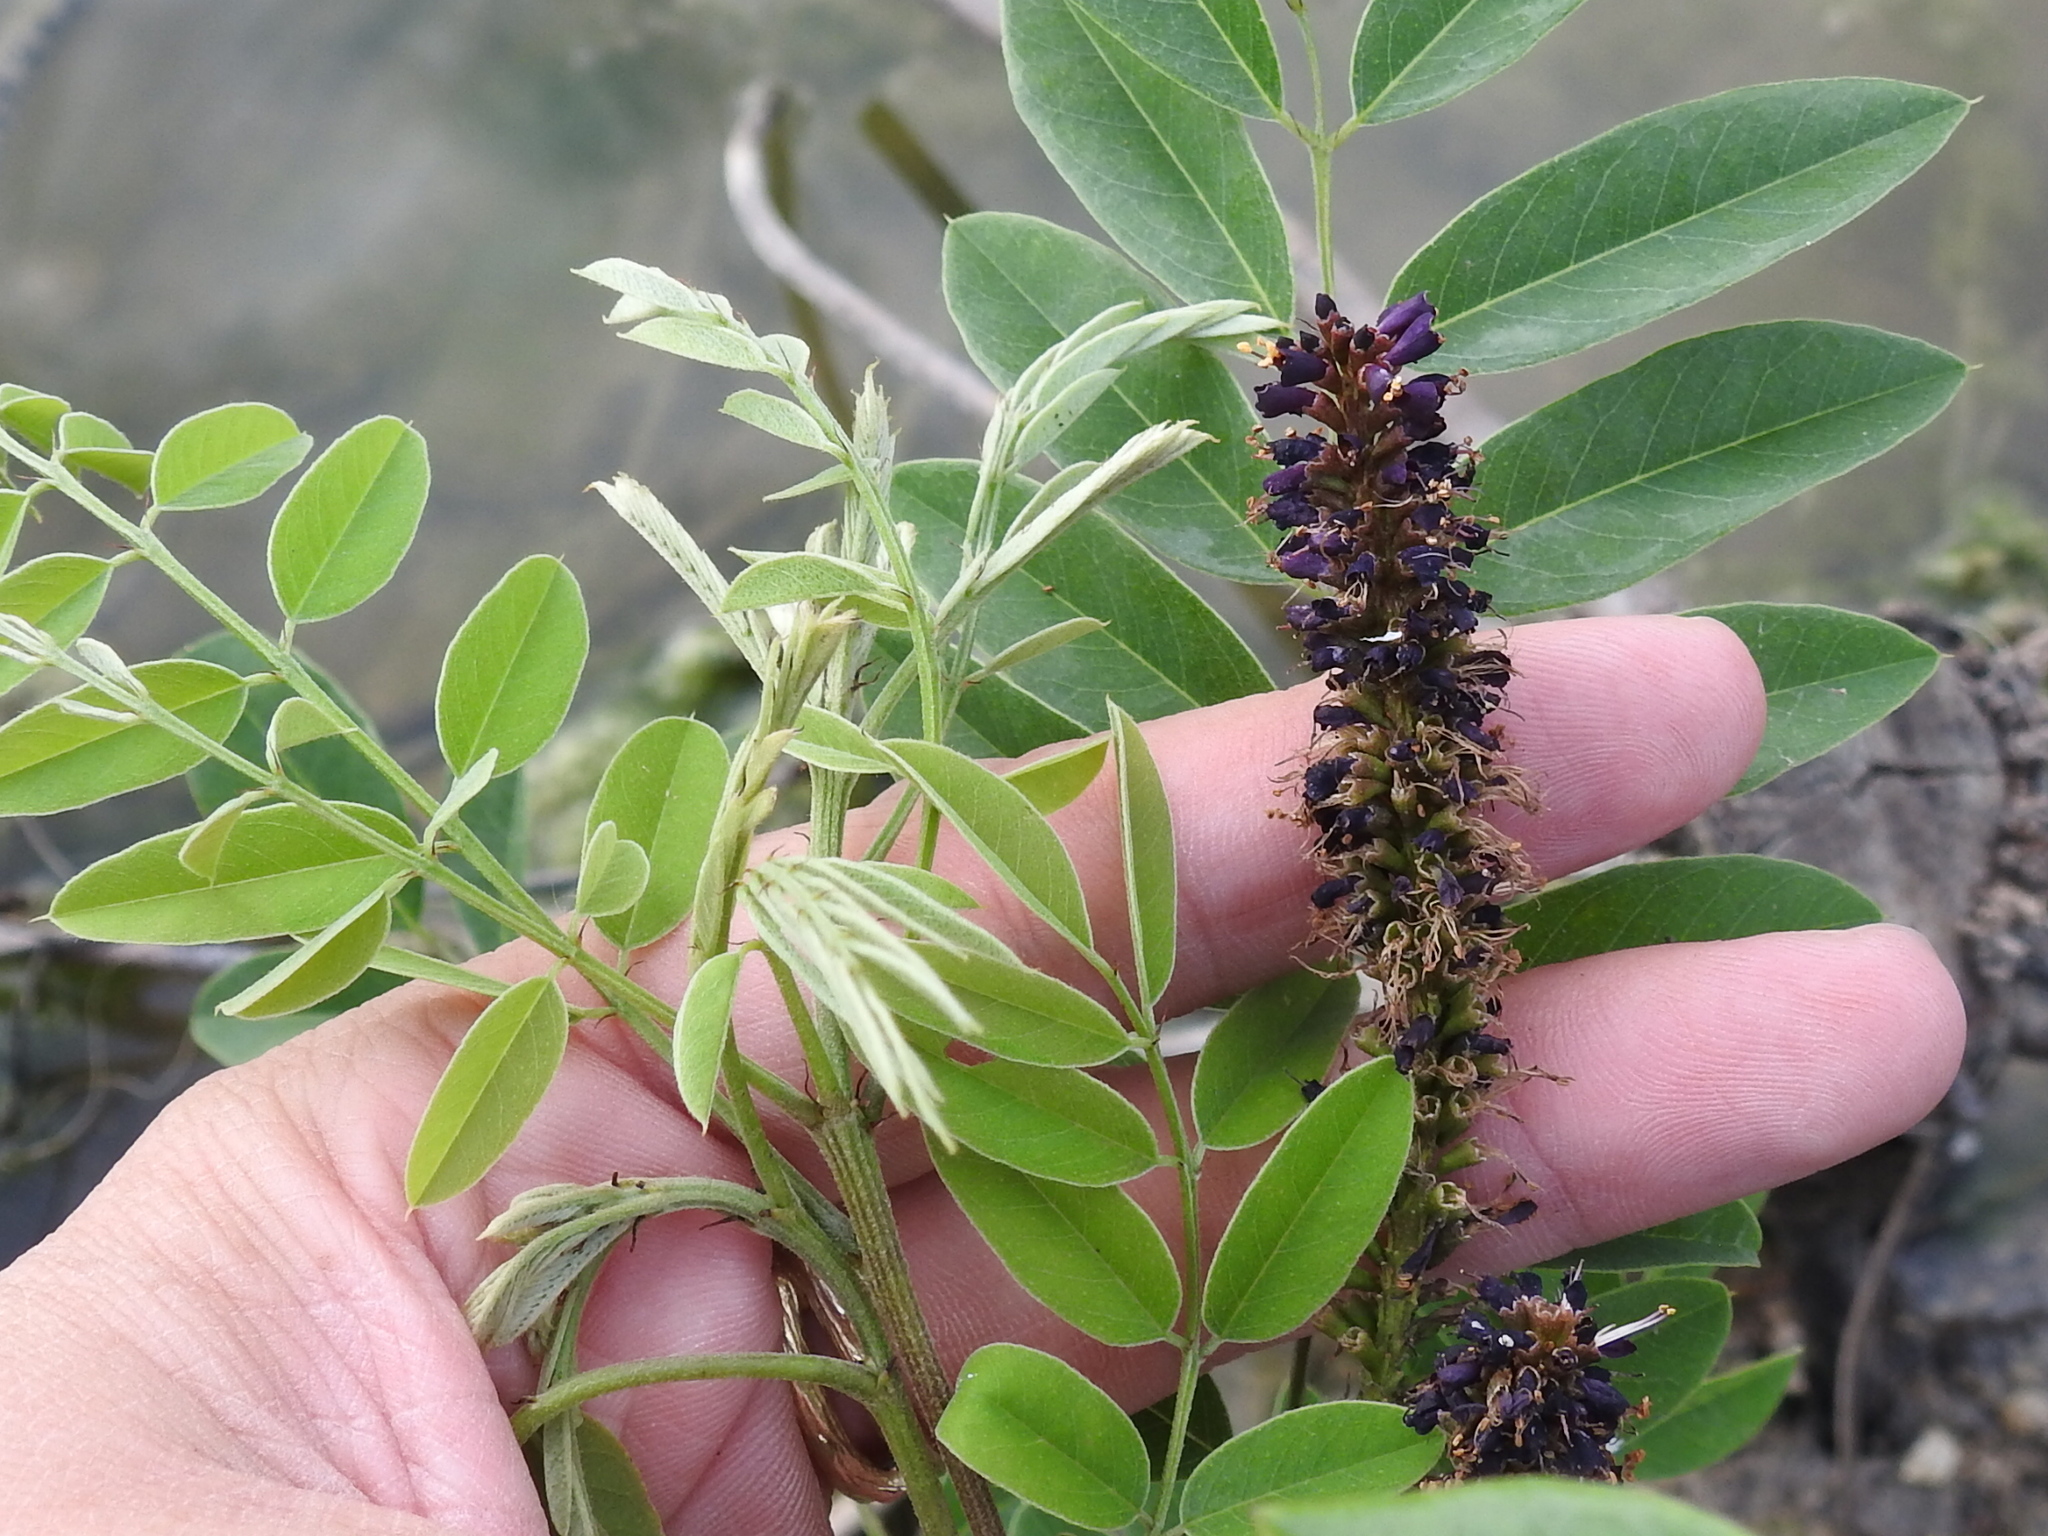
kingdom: Plantae
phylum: Tracheophyta
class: Magnoliopsida
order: Fabales
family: Fabaceae
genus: Amorpha
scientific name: Amorpha fruticosa
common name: False indigo
